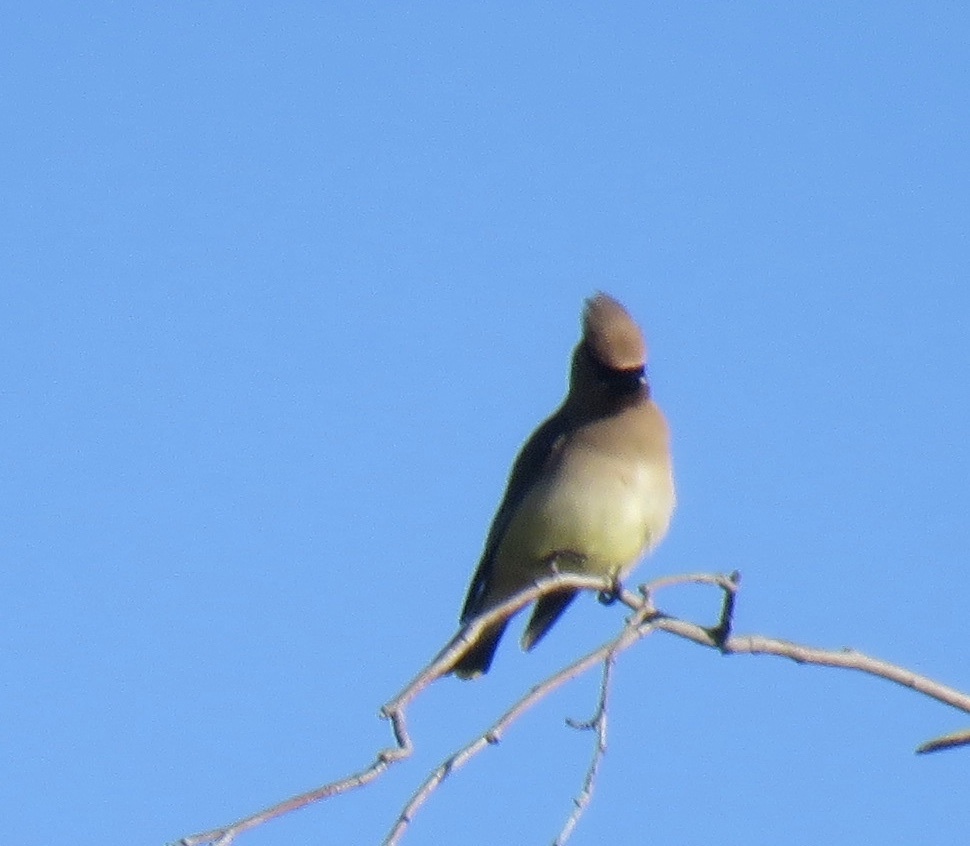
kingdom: Animalia
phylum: Chordata
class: Aves
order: Passeriformes
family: Bombycillidae
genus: Bombycilla
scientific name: Bombycilla cedrorum
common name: Cedar waxwing
